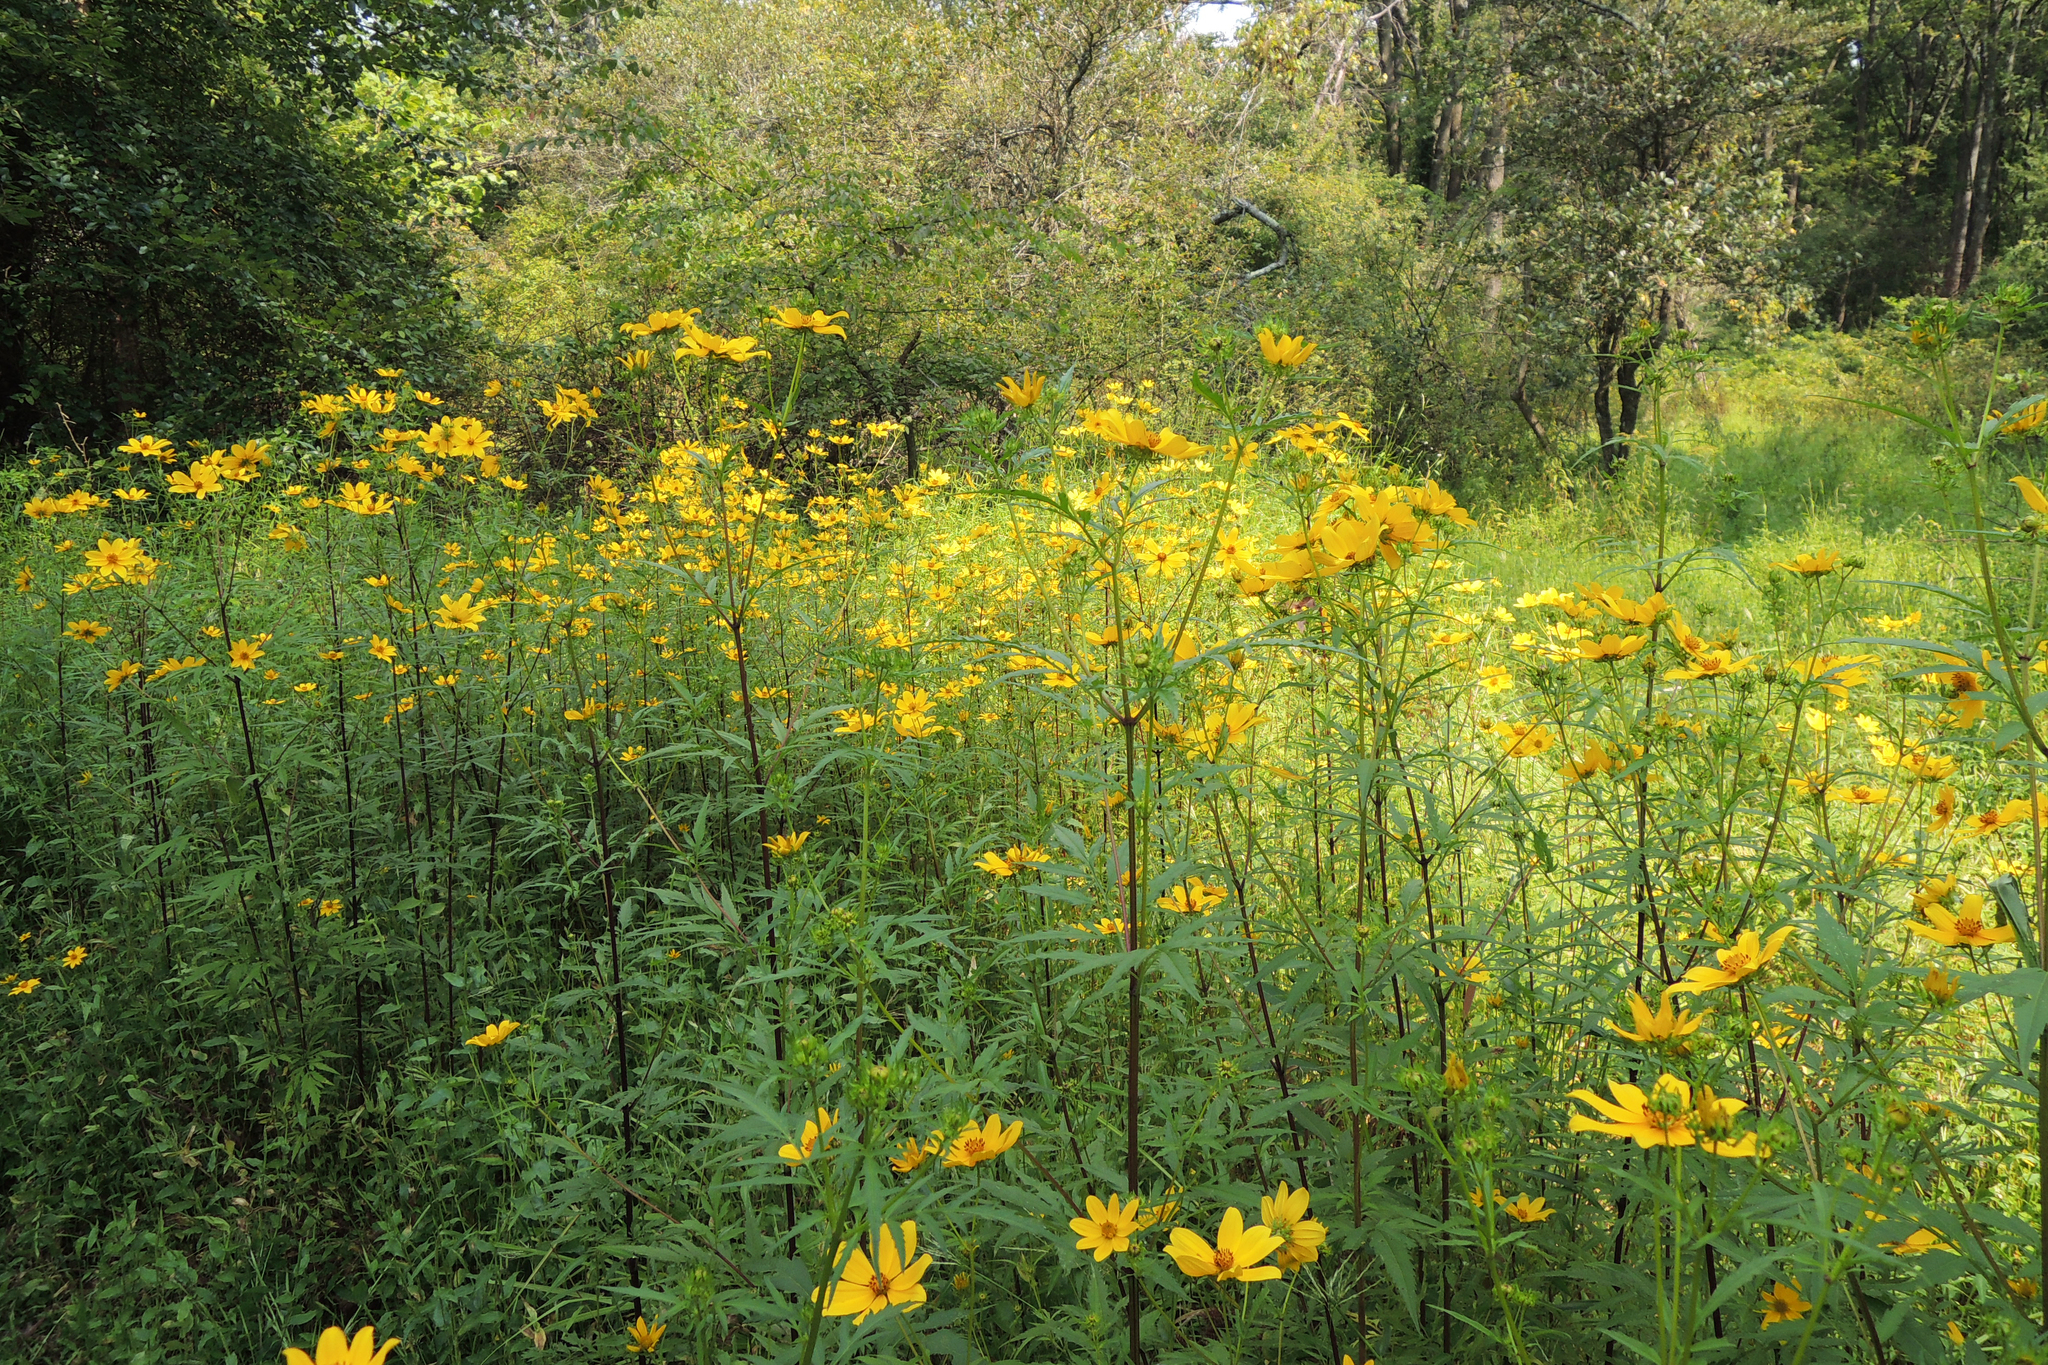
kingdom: Plantae
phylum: Tracheophyta
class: Magnoliopsida
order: Asterales
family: Asteraceae
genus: Bidens
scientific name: Bidens aristosa
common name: Western tickseed
